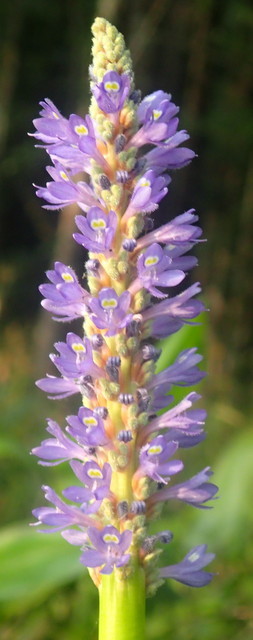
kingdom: Plantae
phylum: Tracheophyta
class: Liliopsida
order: Commelinales
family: Pontederiaceae
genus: Pontederia
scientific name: Pontederia cordata
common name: Pickerelweed
